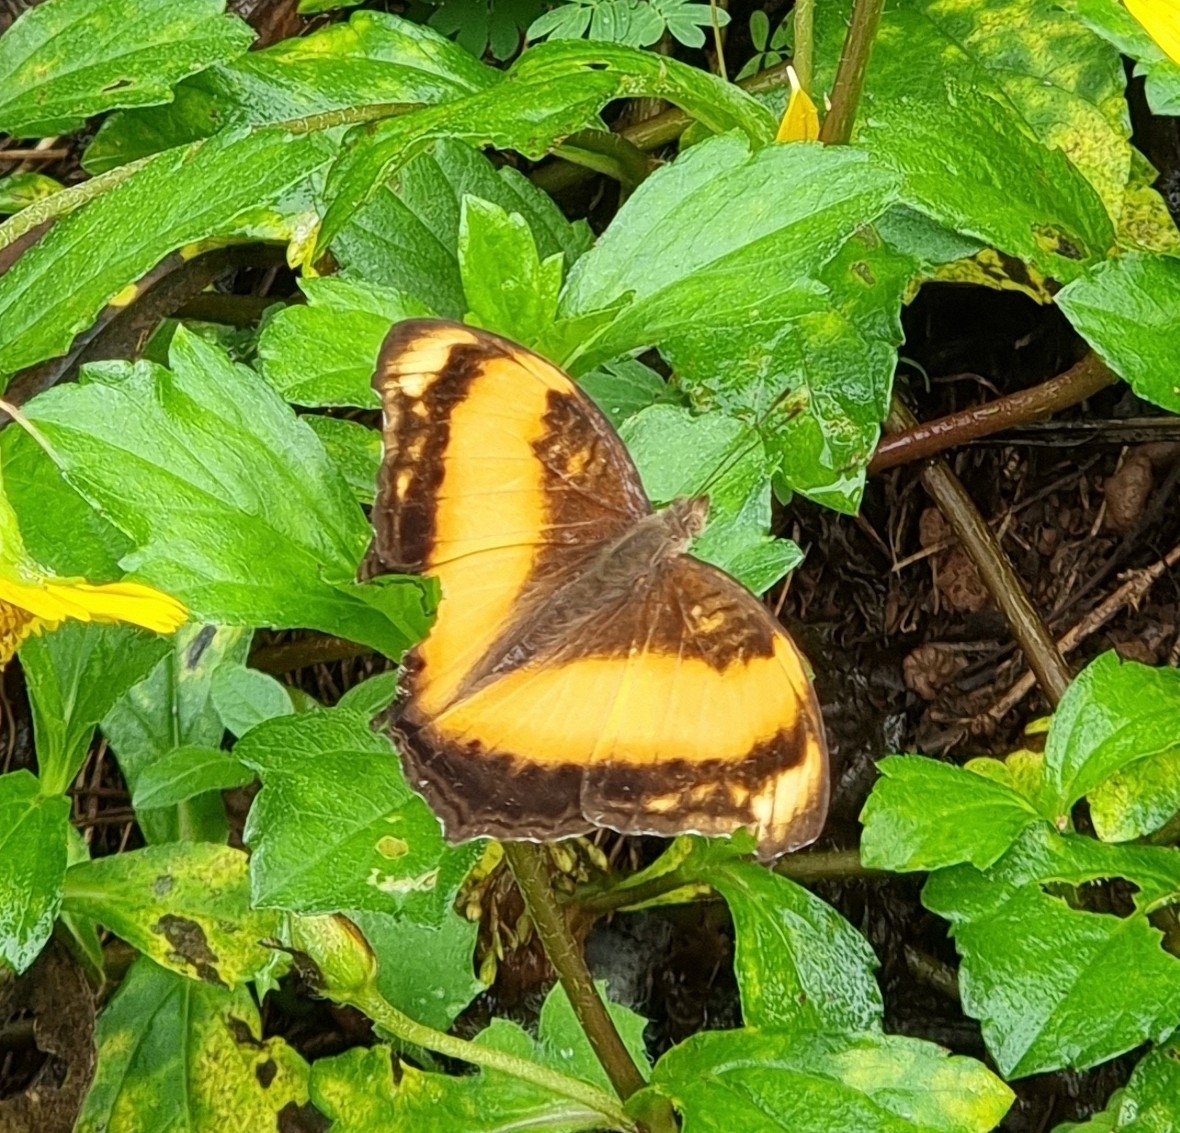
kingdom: Animalia
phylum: Arthropoda
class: Insecta
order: Lepidoptera
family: Nymphalidae
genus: Yoma
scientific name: Yoma sabina
